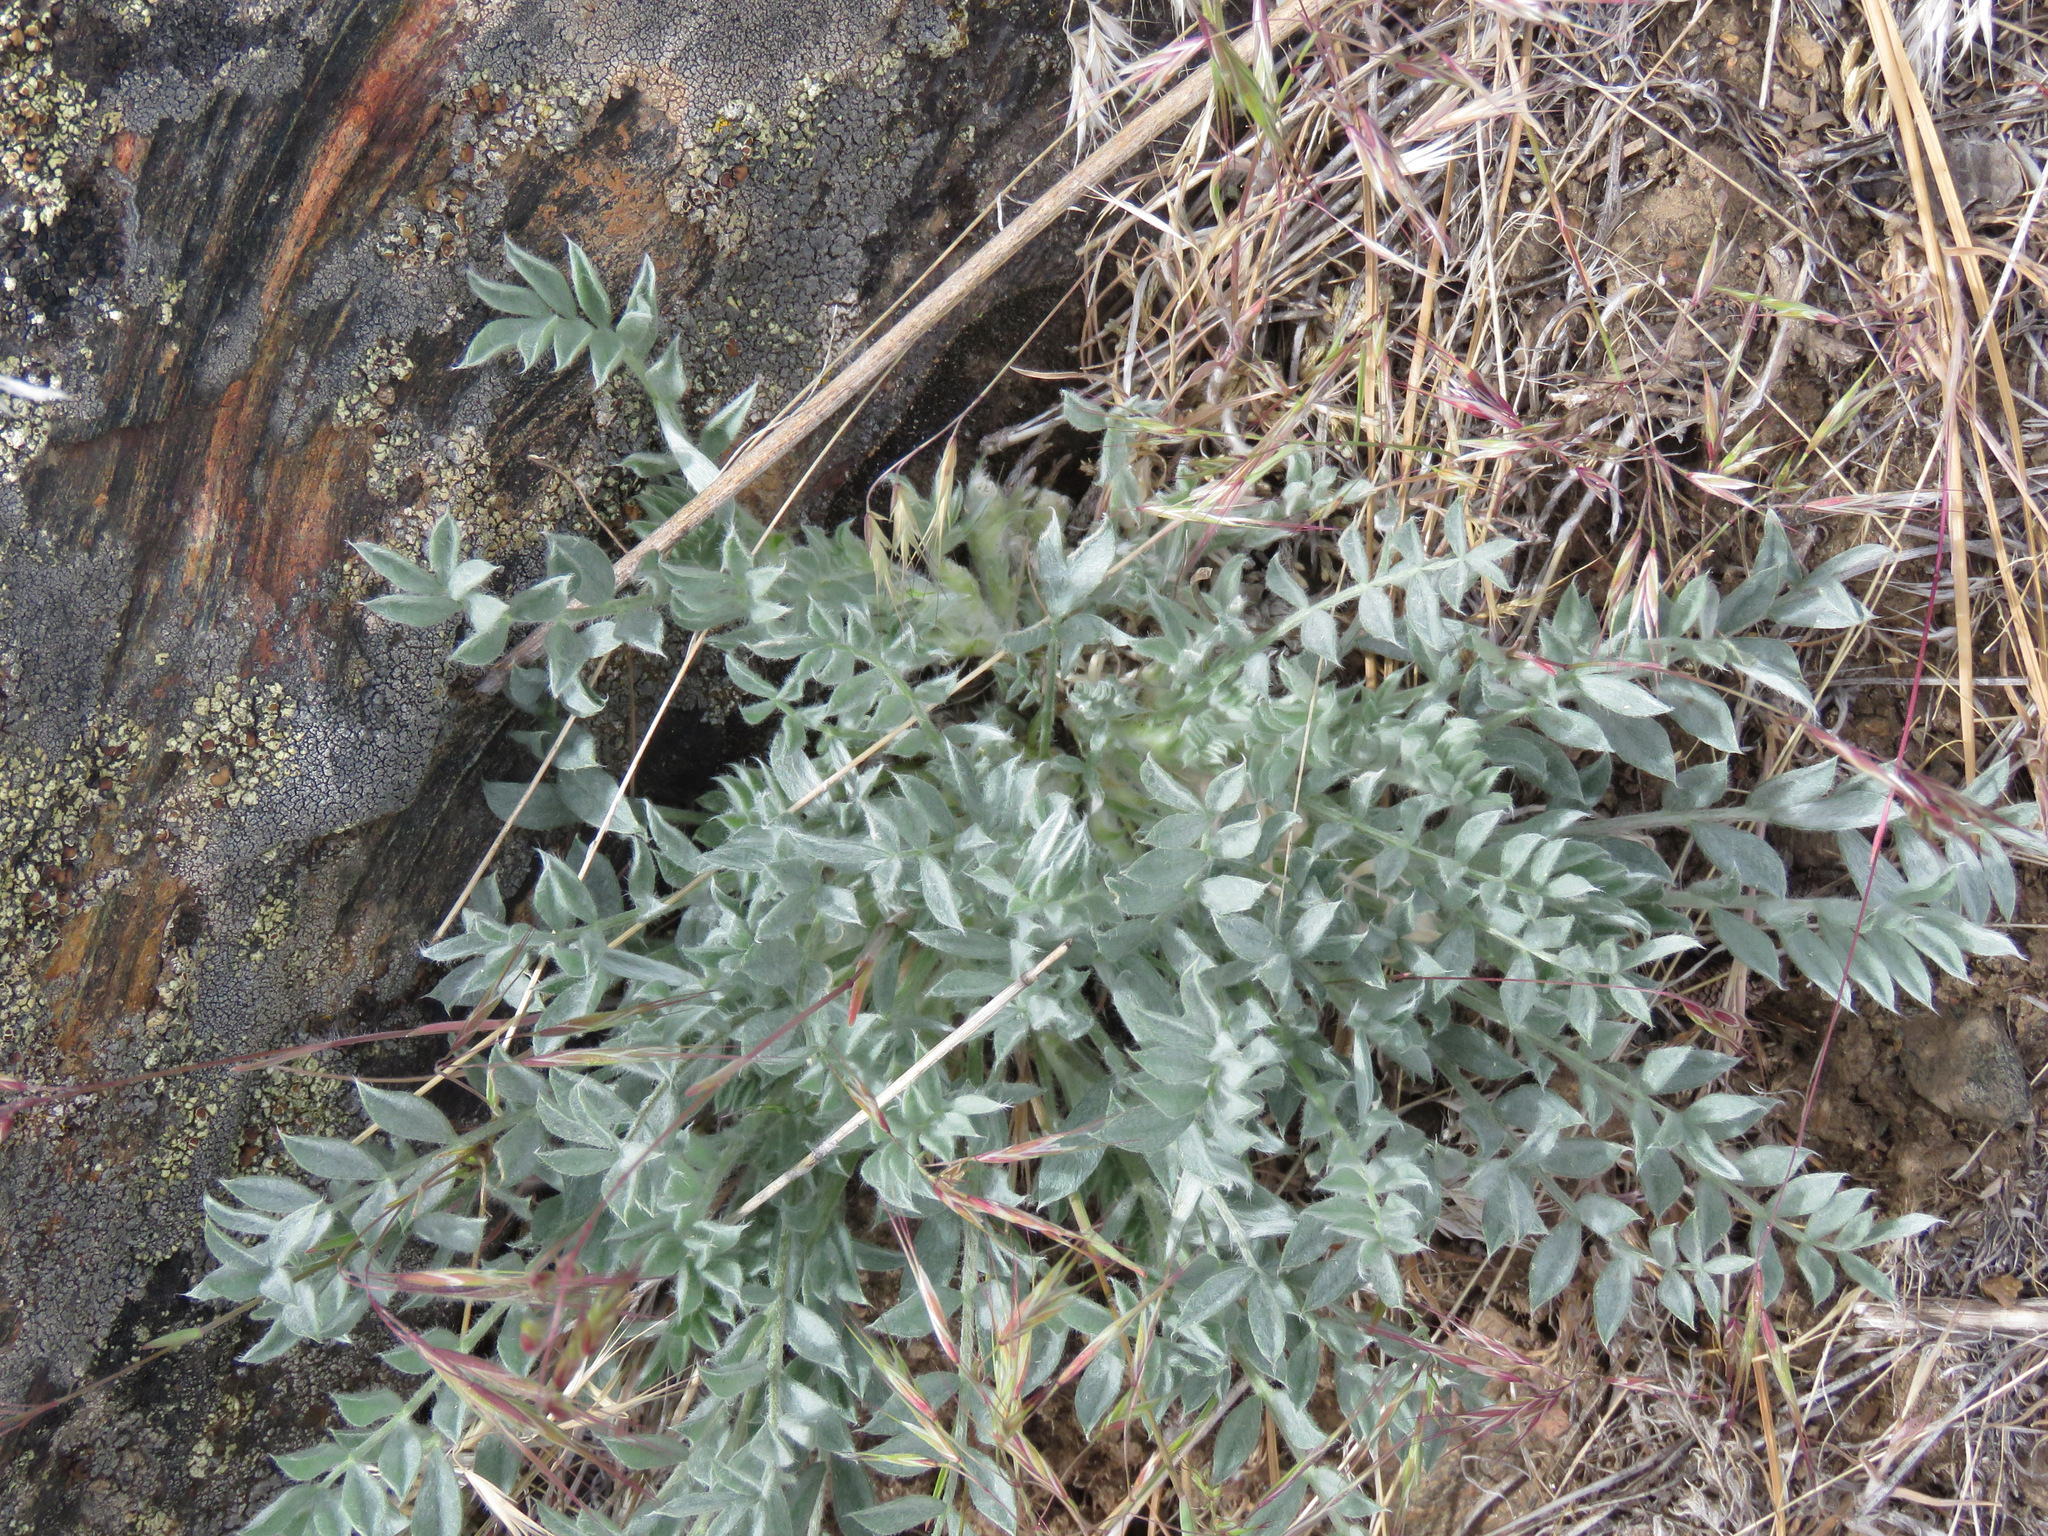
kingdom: Plantae
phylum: Tracheophyta
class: Magnoliopsida
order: Fabales
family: Fabaceae
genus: Astragalus
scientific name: Astragalus purshii
